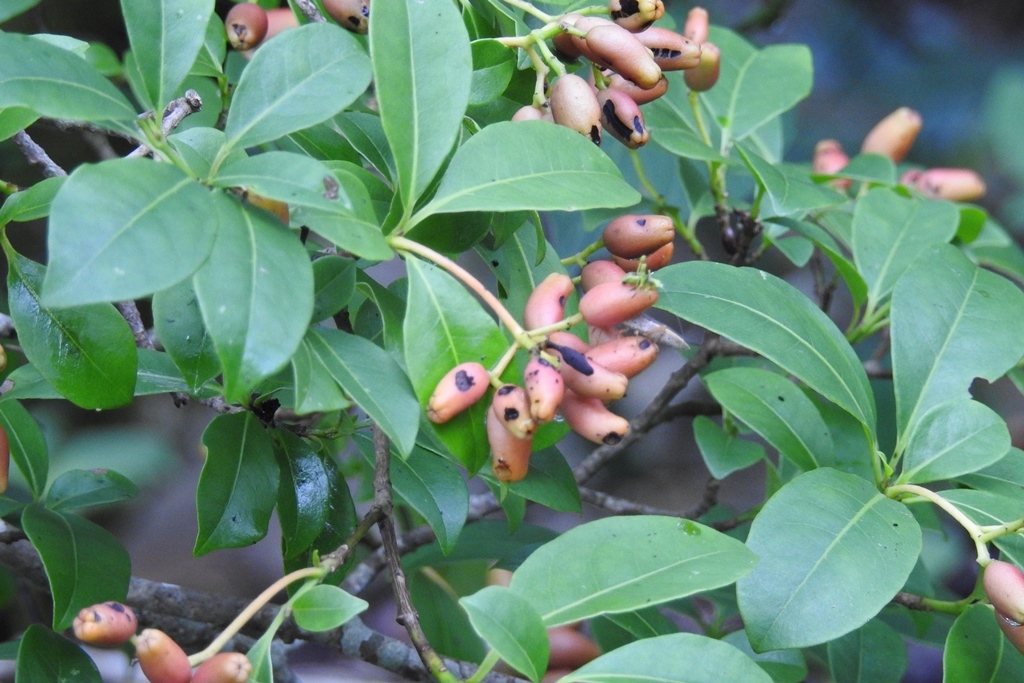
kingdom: Plantae
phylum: Tracheophyta
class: Magnoliopsida
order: Caryophyllales
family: Nyctaginaceae
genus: Neea
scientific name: Neea tenuis
